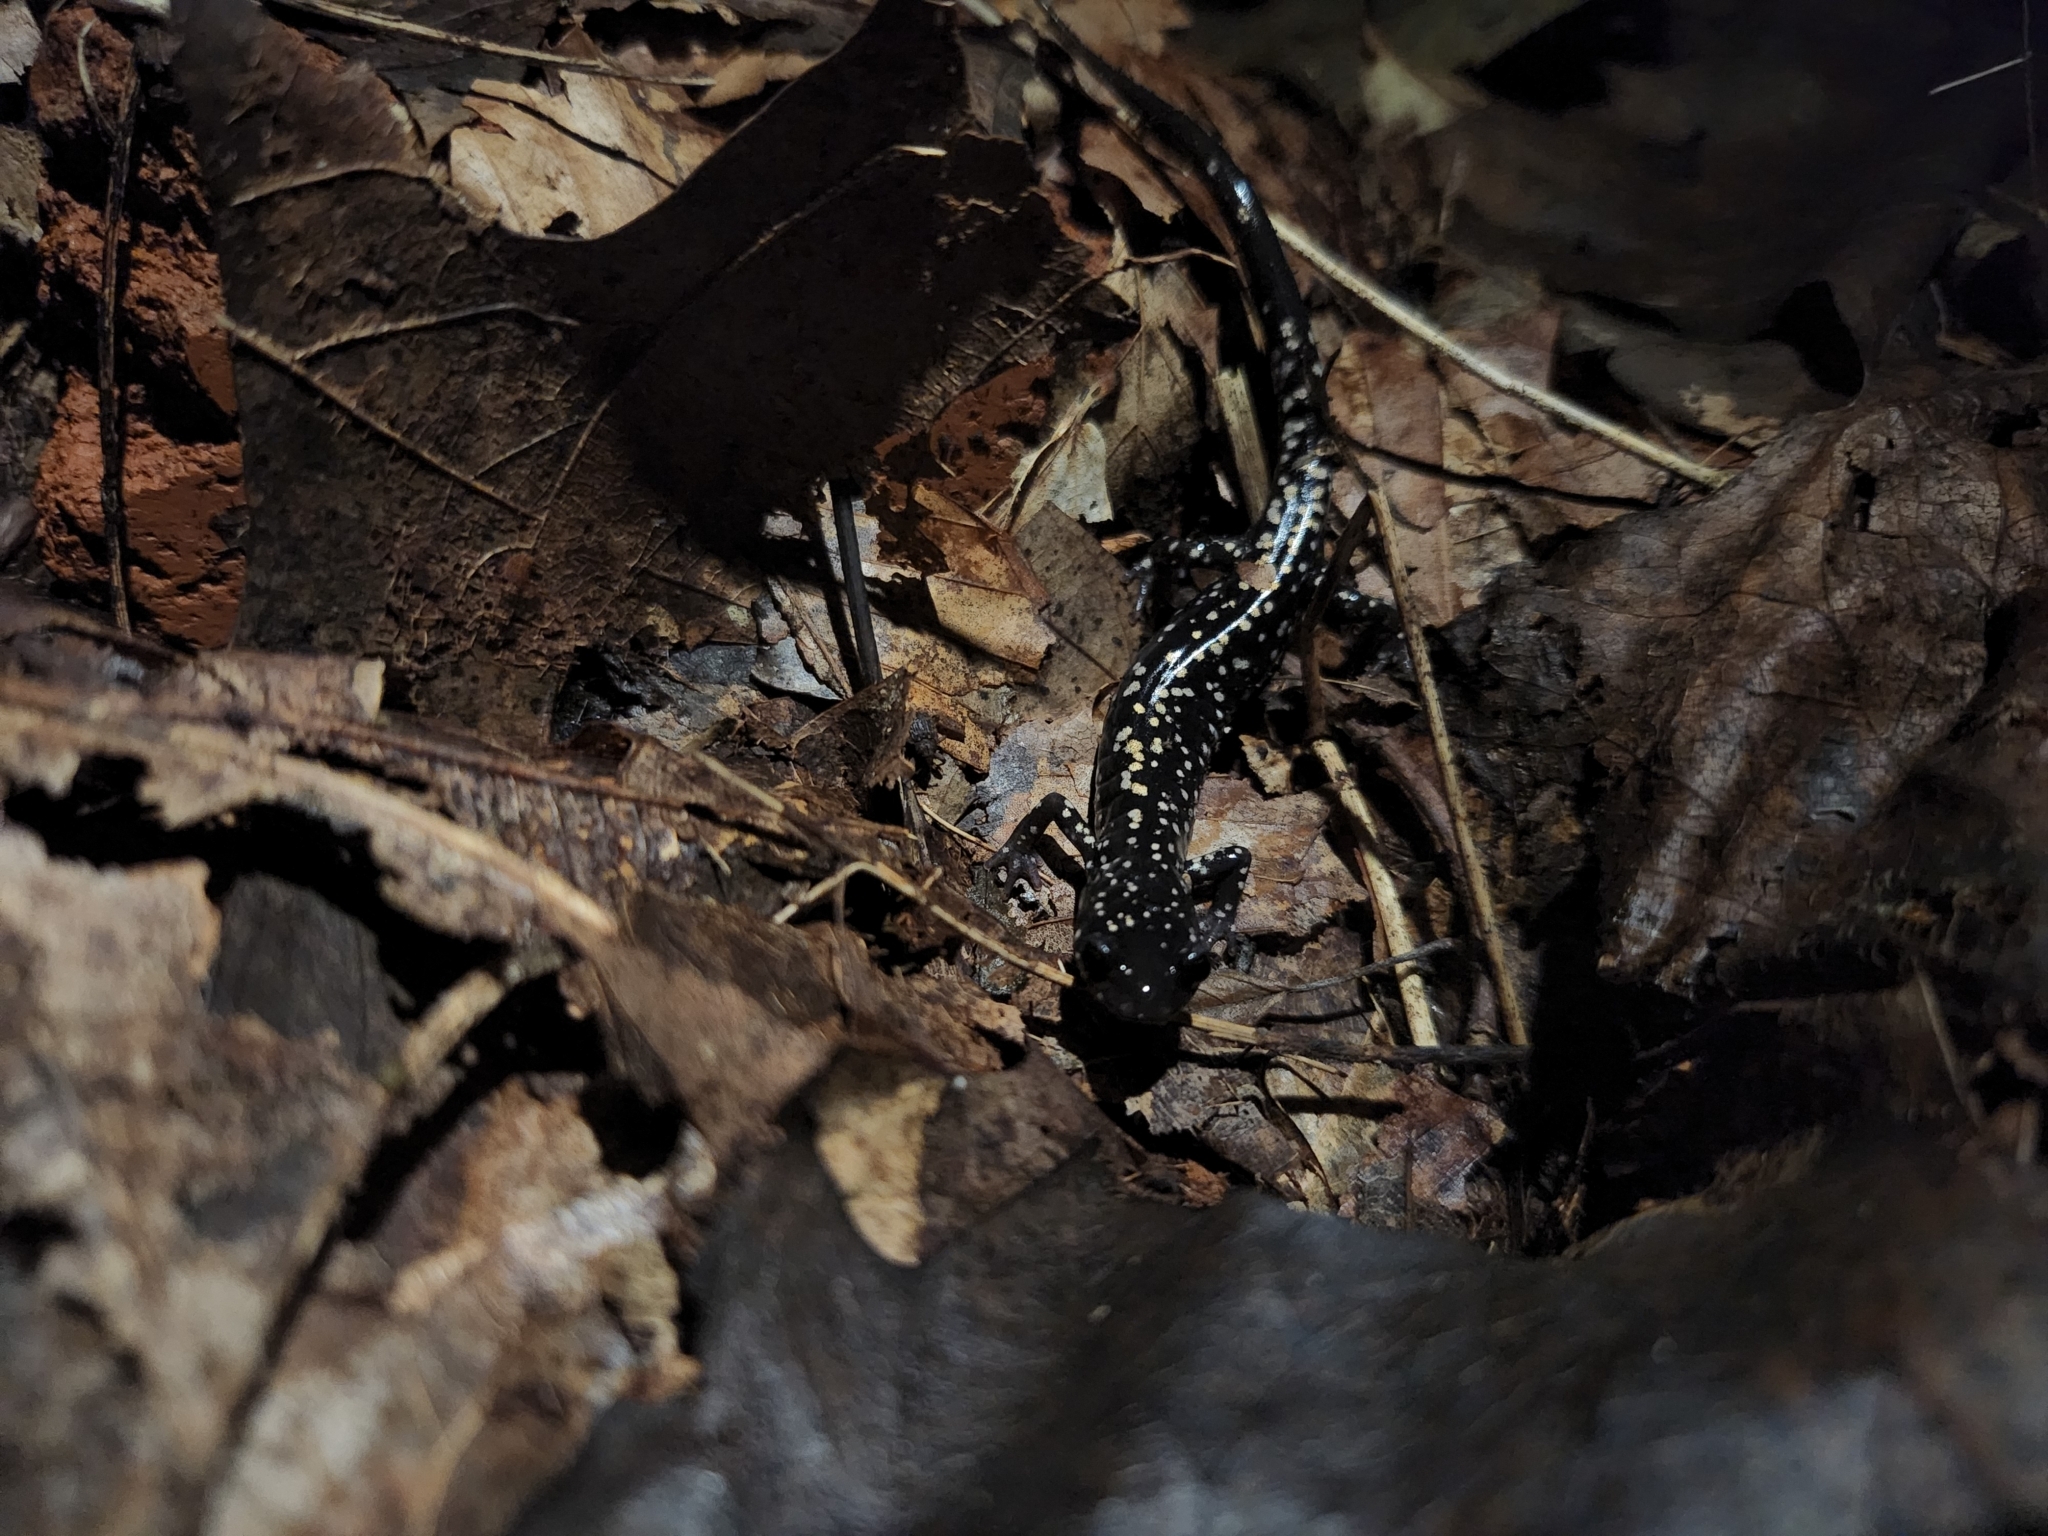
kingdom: Animalia
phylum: Chordata
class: Amphibia
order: Caudata
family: Plethodontidae
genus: Plethodon
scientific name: Plethodon glutinosus
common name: Northern slimy salamander
